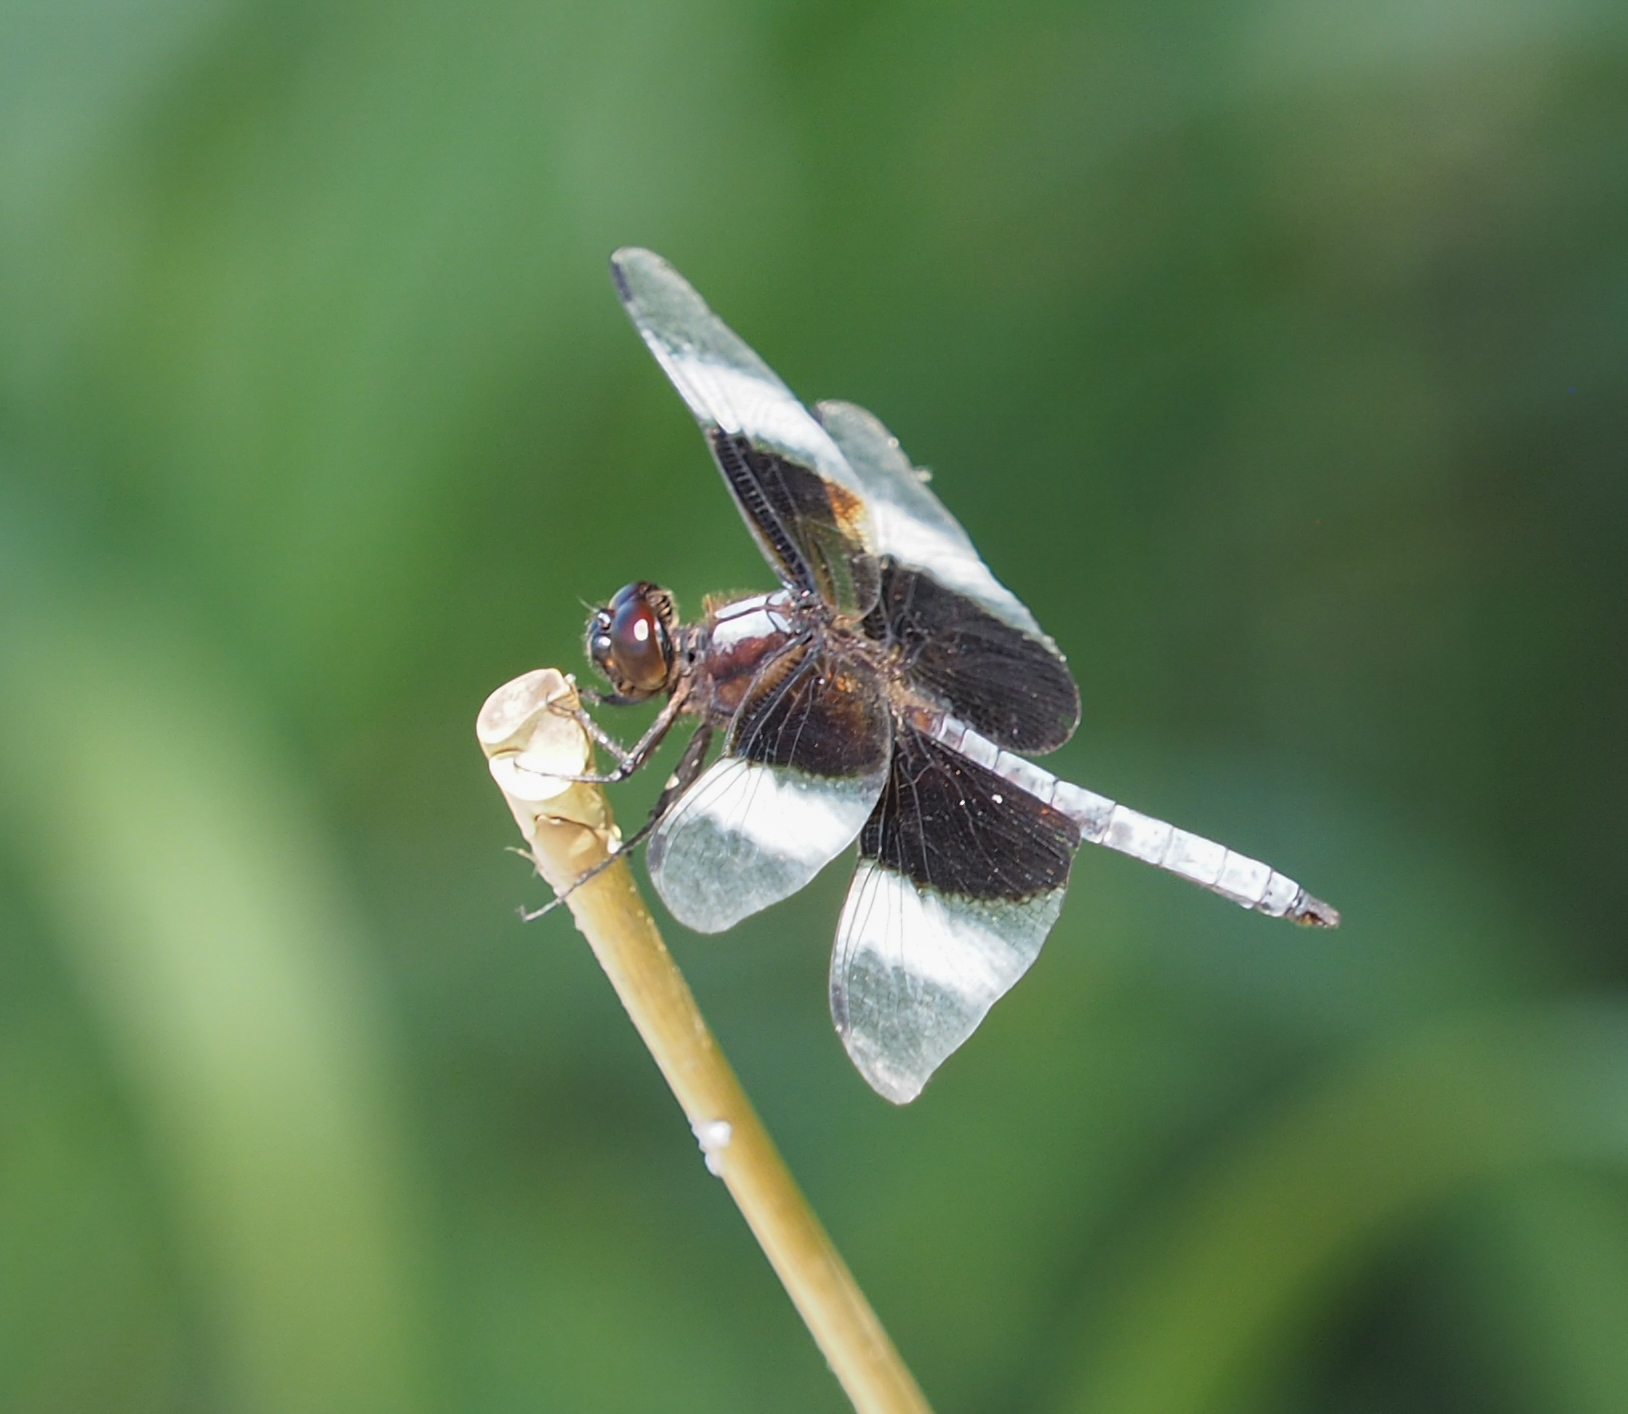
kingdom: Animalia
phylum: Arthropoda
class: Insecta
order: Odonata
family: Libellulidae
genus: Libellula
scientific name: Libellula luctuosa
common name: Widow skimmer
